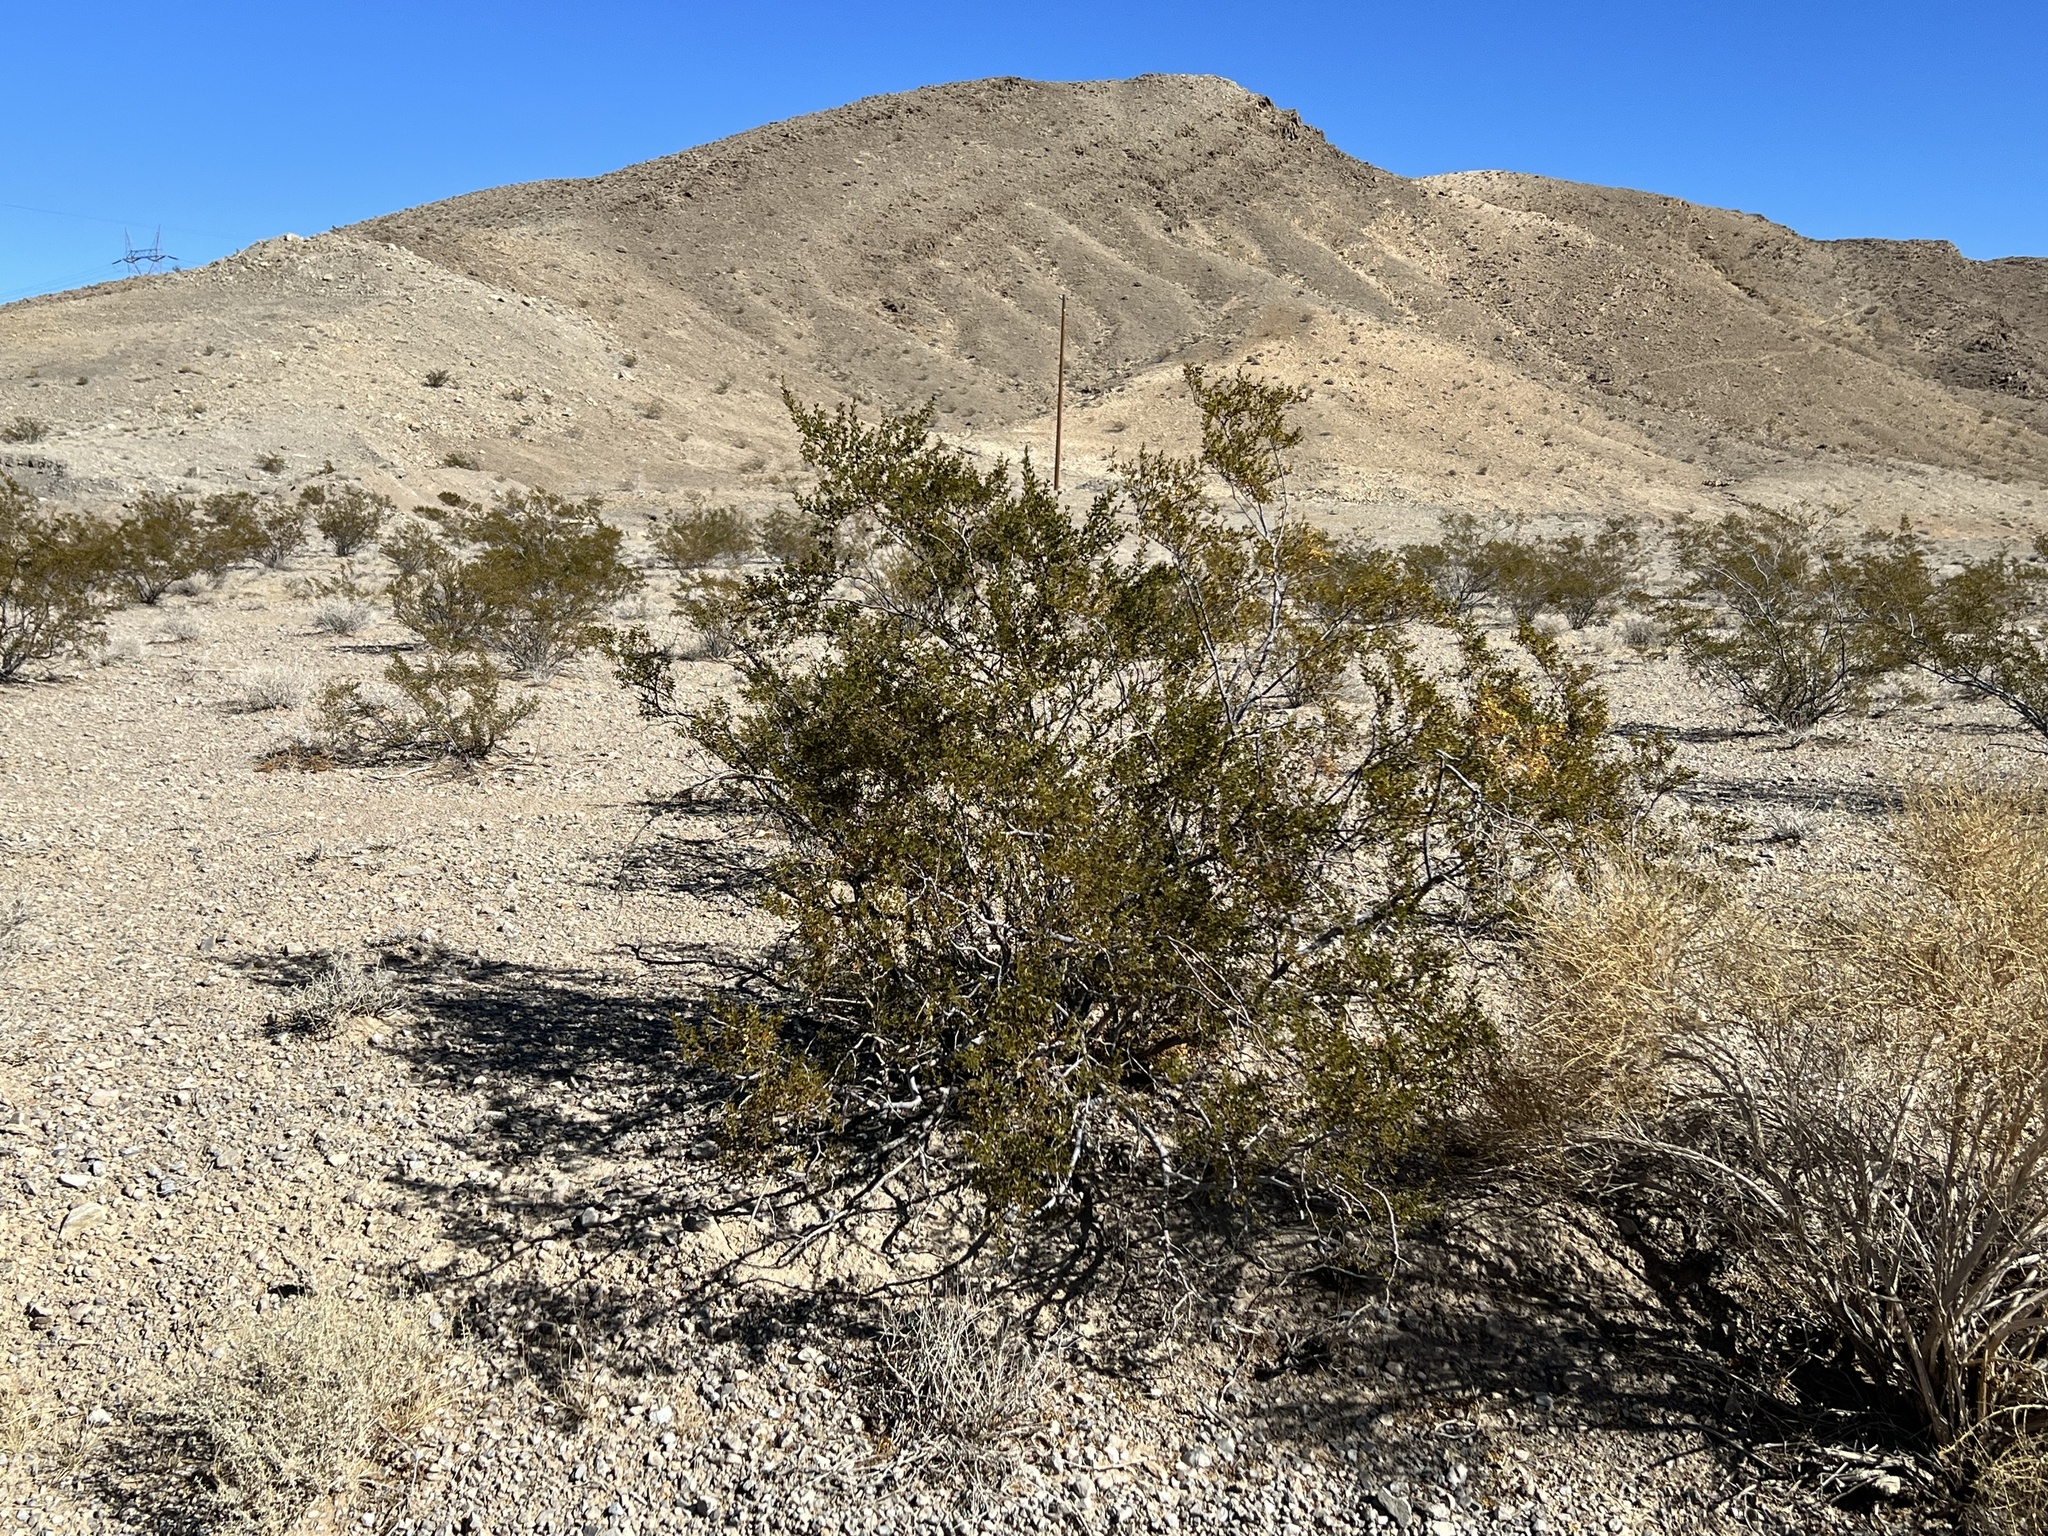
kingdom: Plantae
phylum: Tracheophyta
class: Magnoliopsida
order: Zygophyllales
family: Zygophyllaceae
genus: Larrea
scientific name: Larrea tridentata
